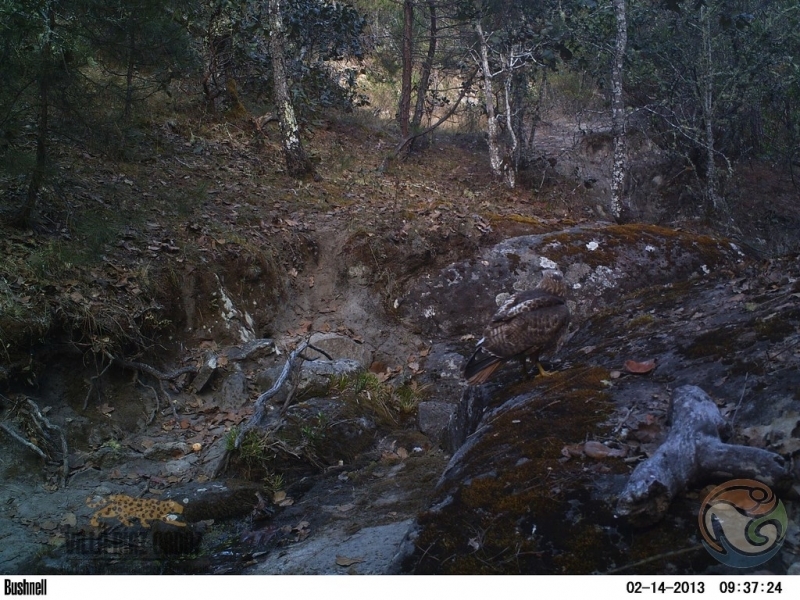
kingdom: Animalia
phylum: Chordata
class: Aves
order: Accipitriformes
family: Accipitridae
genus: Buteo
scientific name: Buteo jamaicensis
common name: Red-tailed hawk
